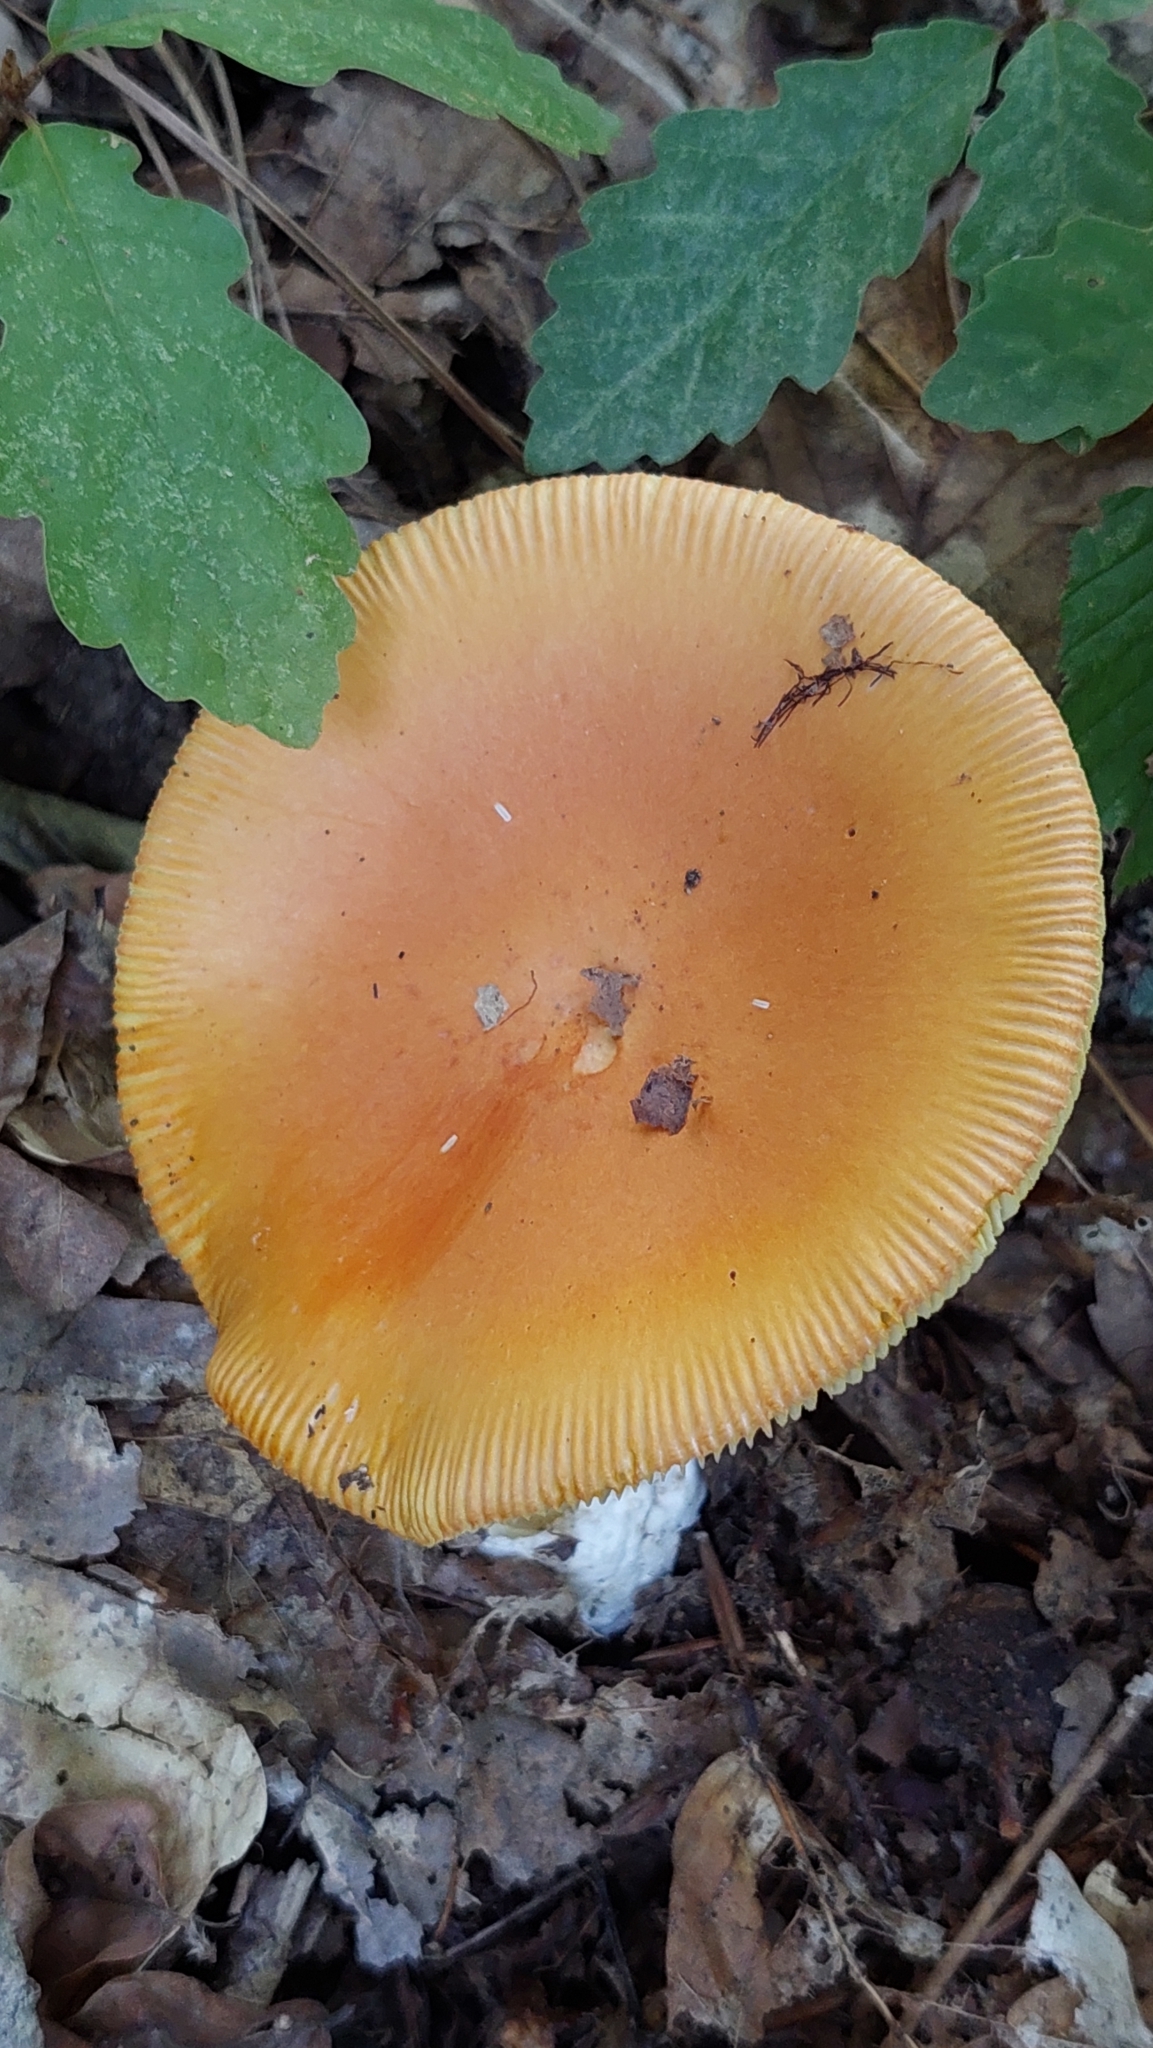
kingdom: Fungi
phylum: Basidiomycota
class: Agaricomycetes
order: Agaricales
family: Amanitaceae
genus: Amanita
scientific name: Amanita caesarea
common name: Caesar's amanita
